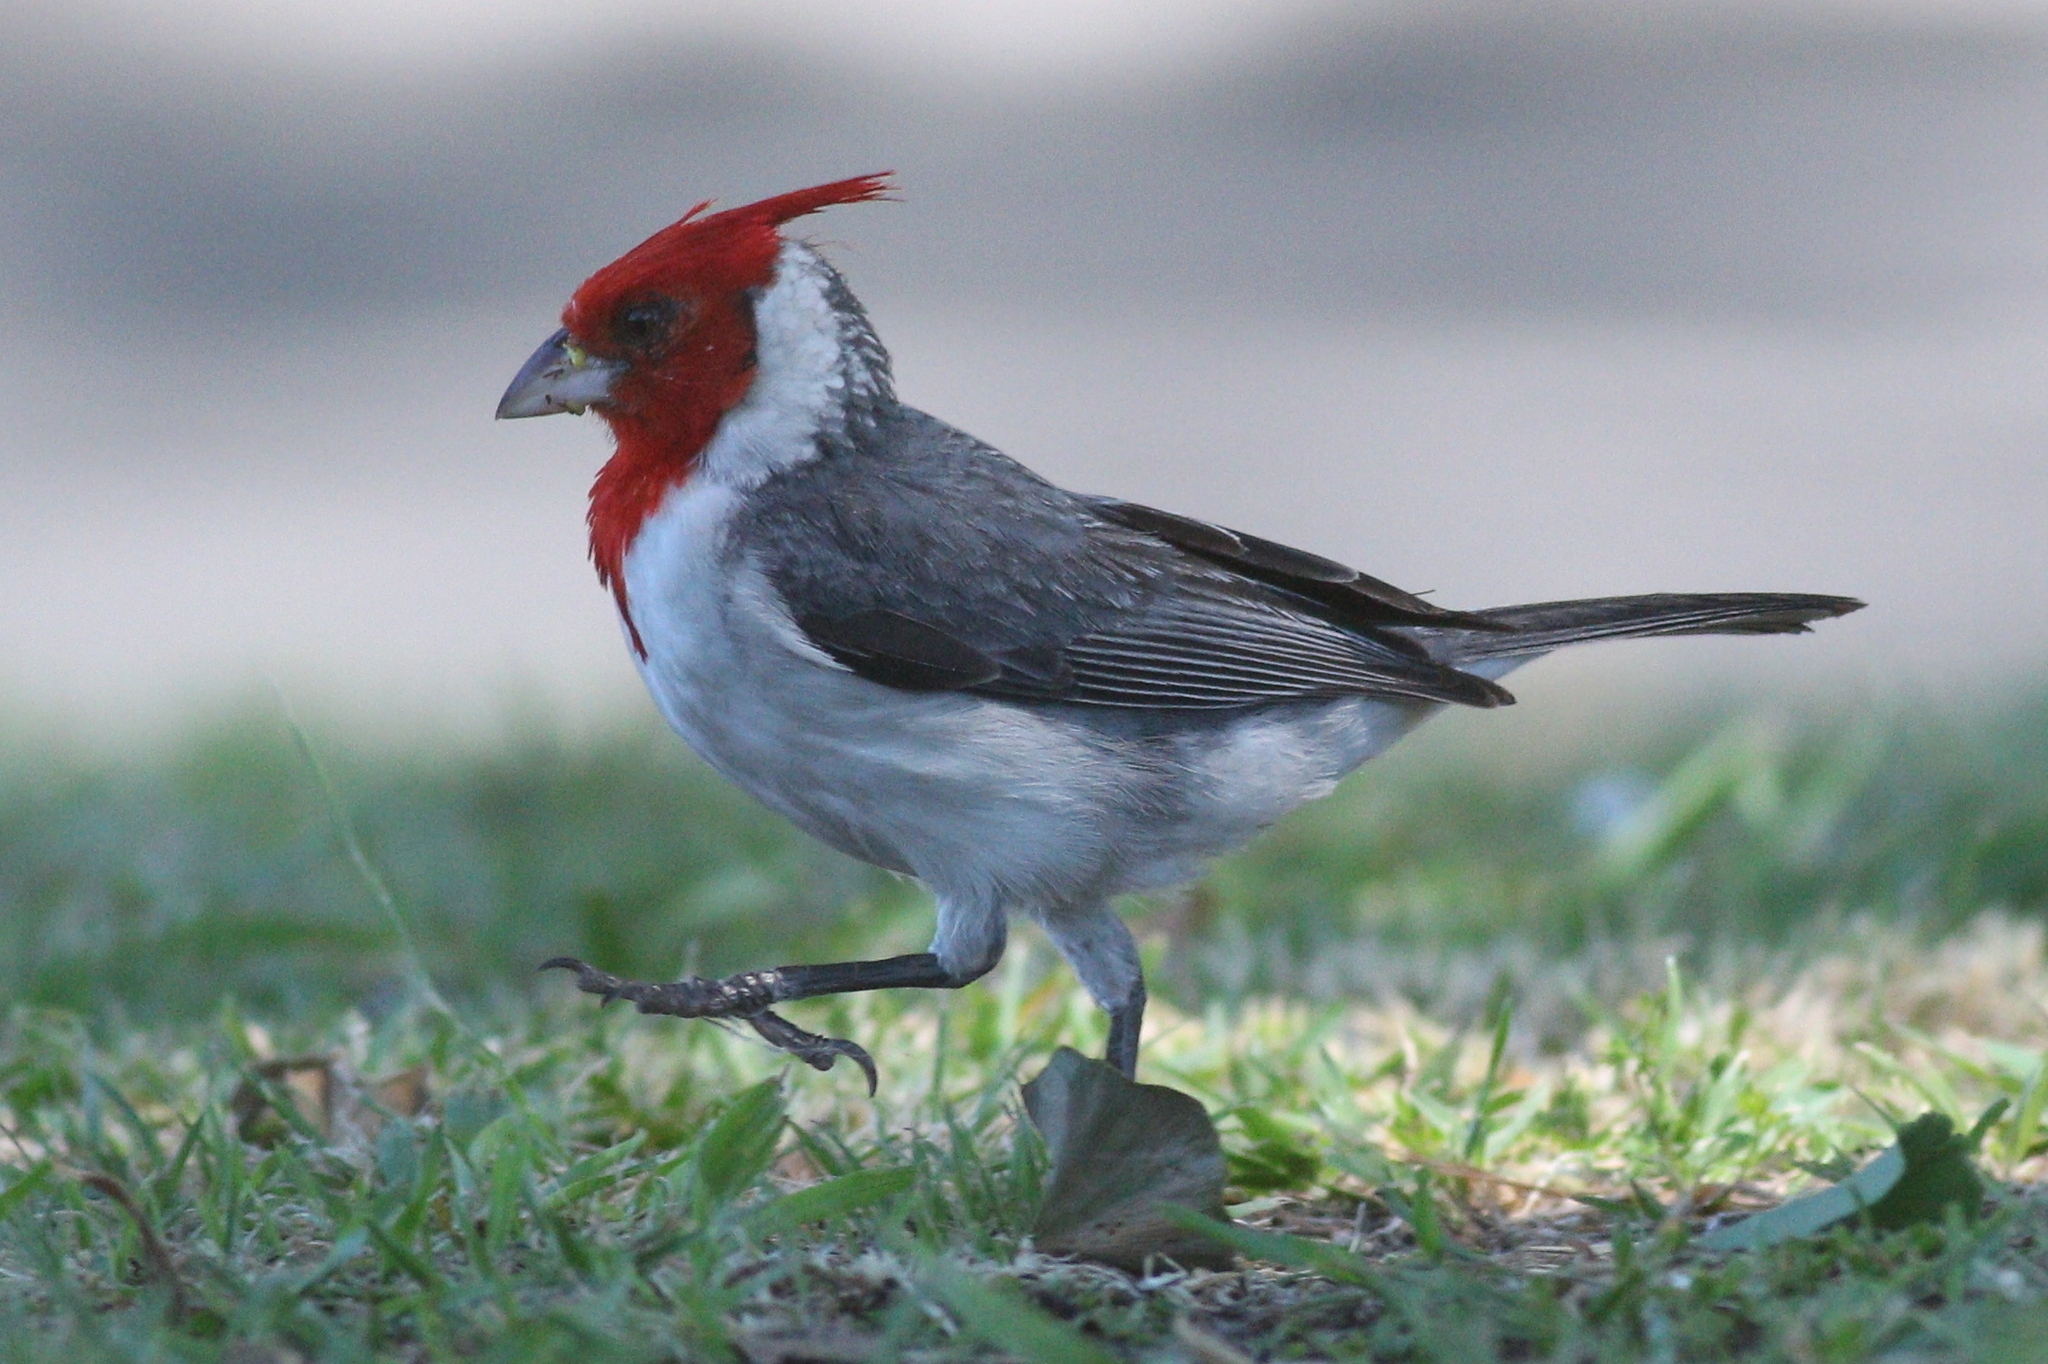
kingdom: Animalia
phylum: Chordata
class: Aves
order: Passeriformes
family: Thraupidae
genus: Paroaria
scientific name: Paroaria coronata
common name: Red-crested cardinal
